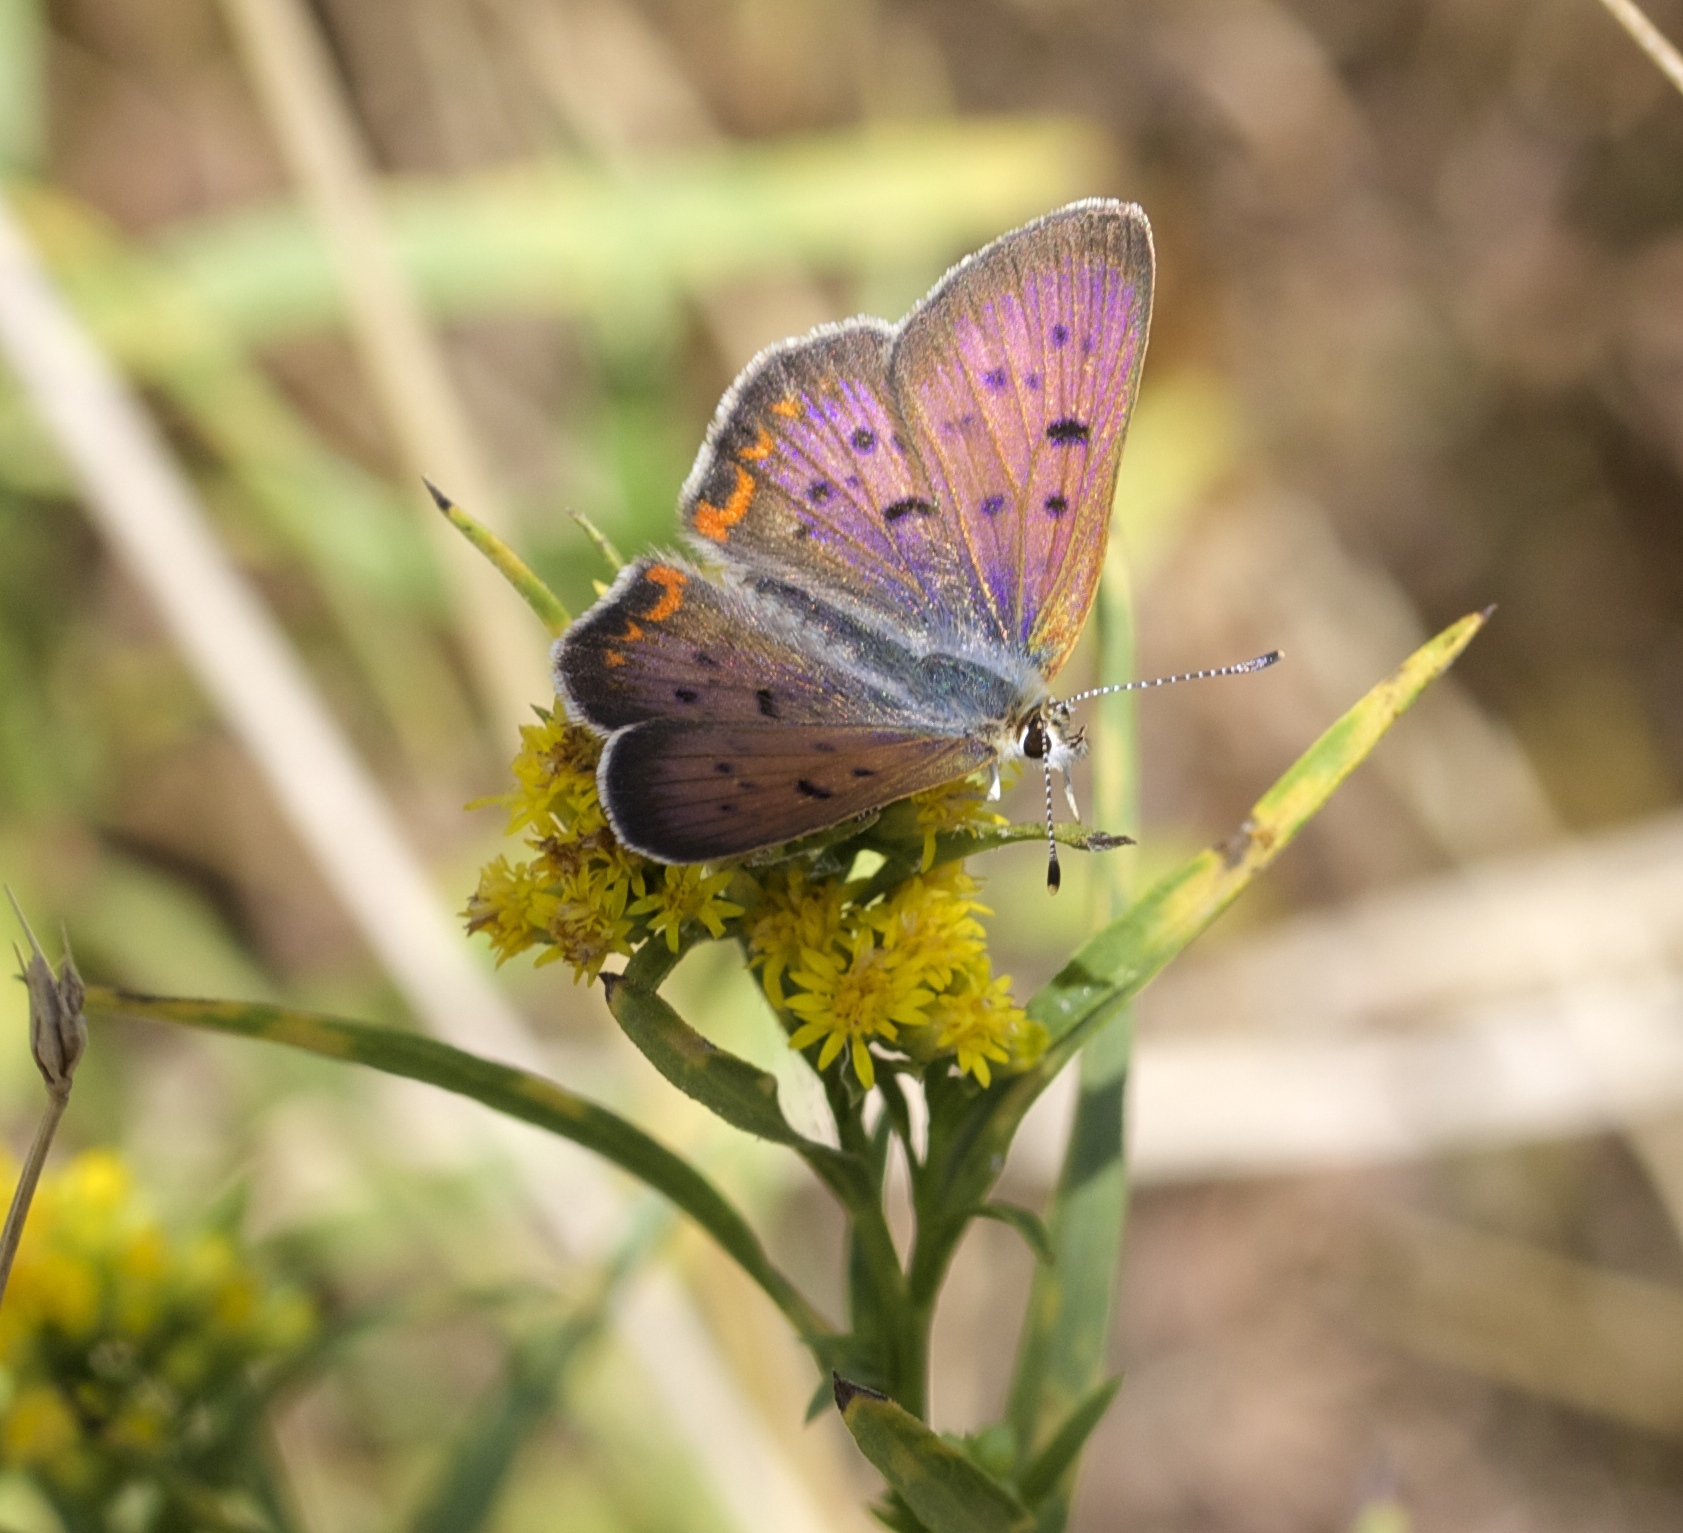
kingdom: Animalia
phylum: Arthropoda
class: Insecta
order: Lepidoptera
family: Lycaenidae
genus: Tharsalea
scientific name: Tharsalea helloides
